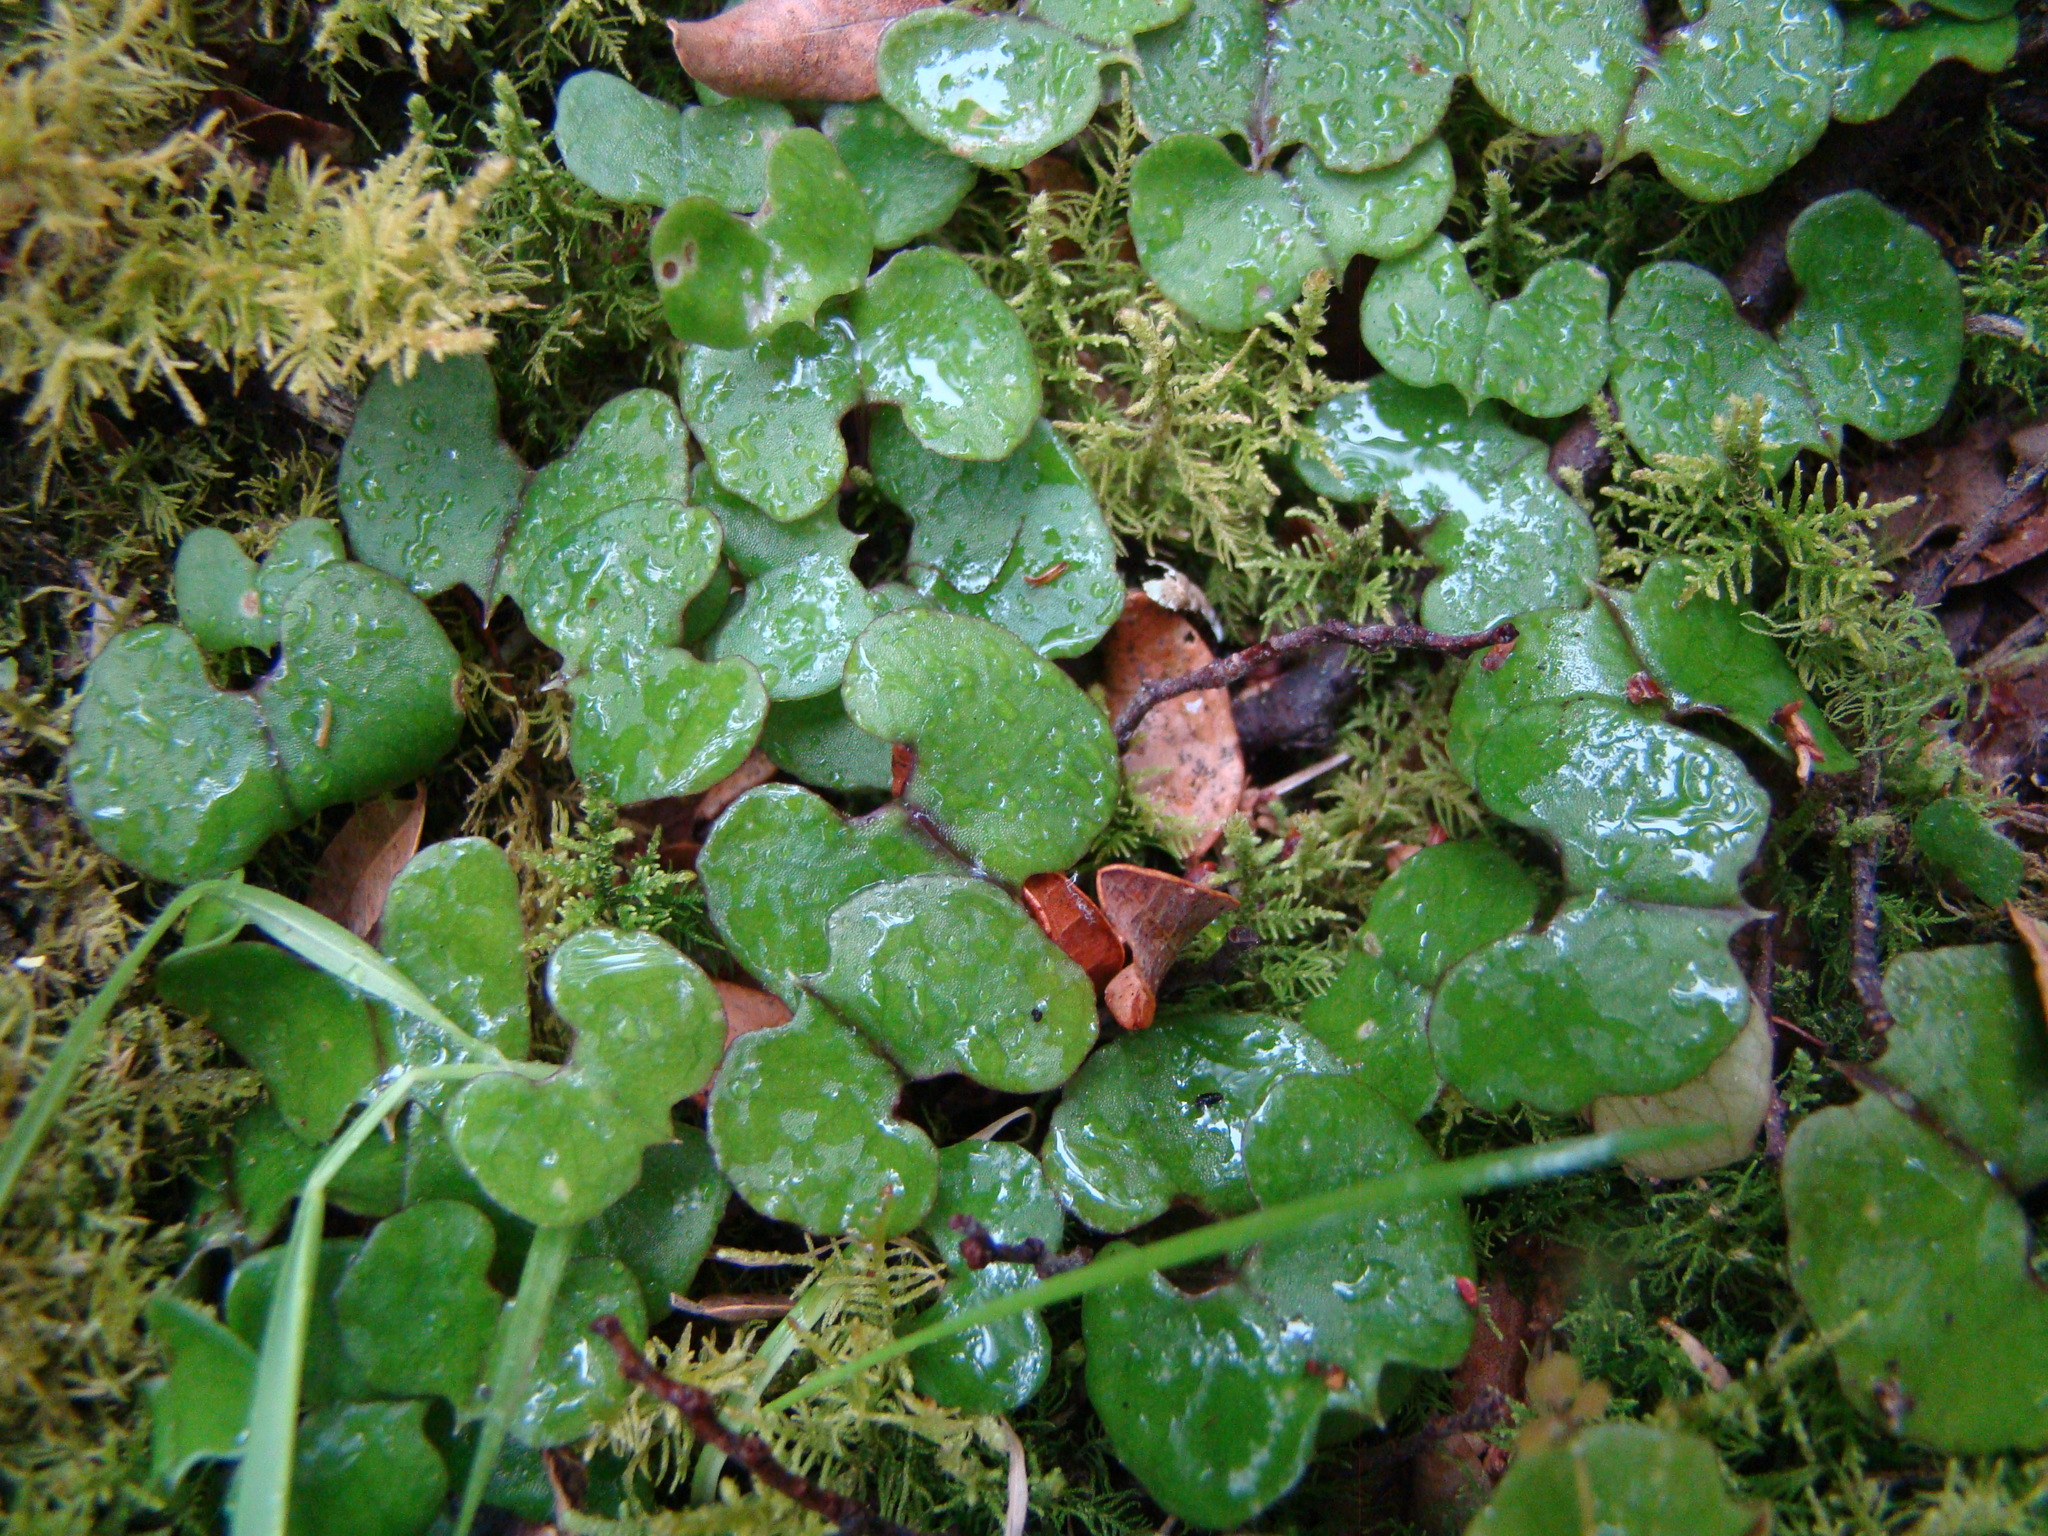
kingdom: Plantae
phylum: Tracheophyta
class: Liliopsida
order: Asparagales
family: Orchidaceae
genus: Corybas
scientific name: Corybas trilobus
